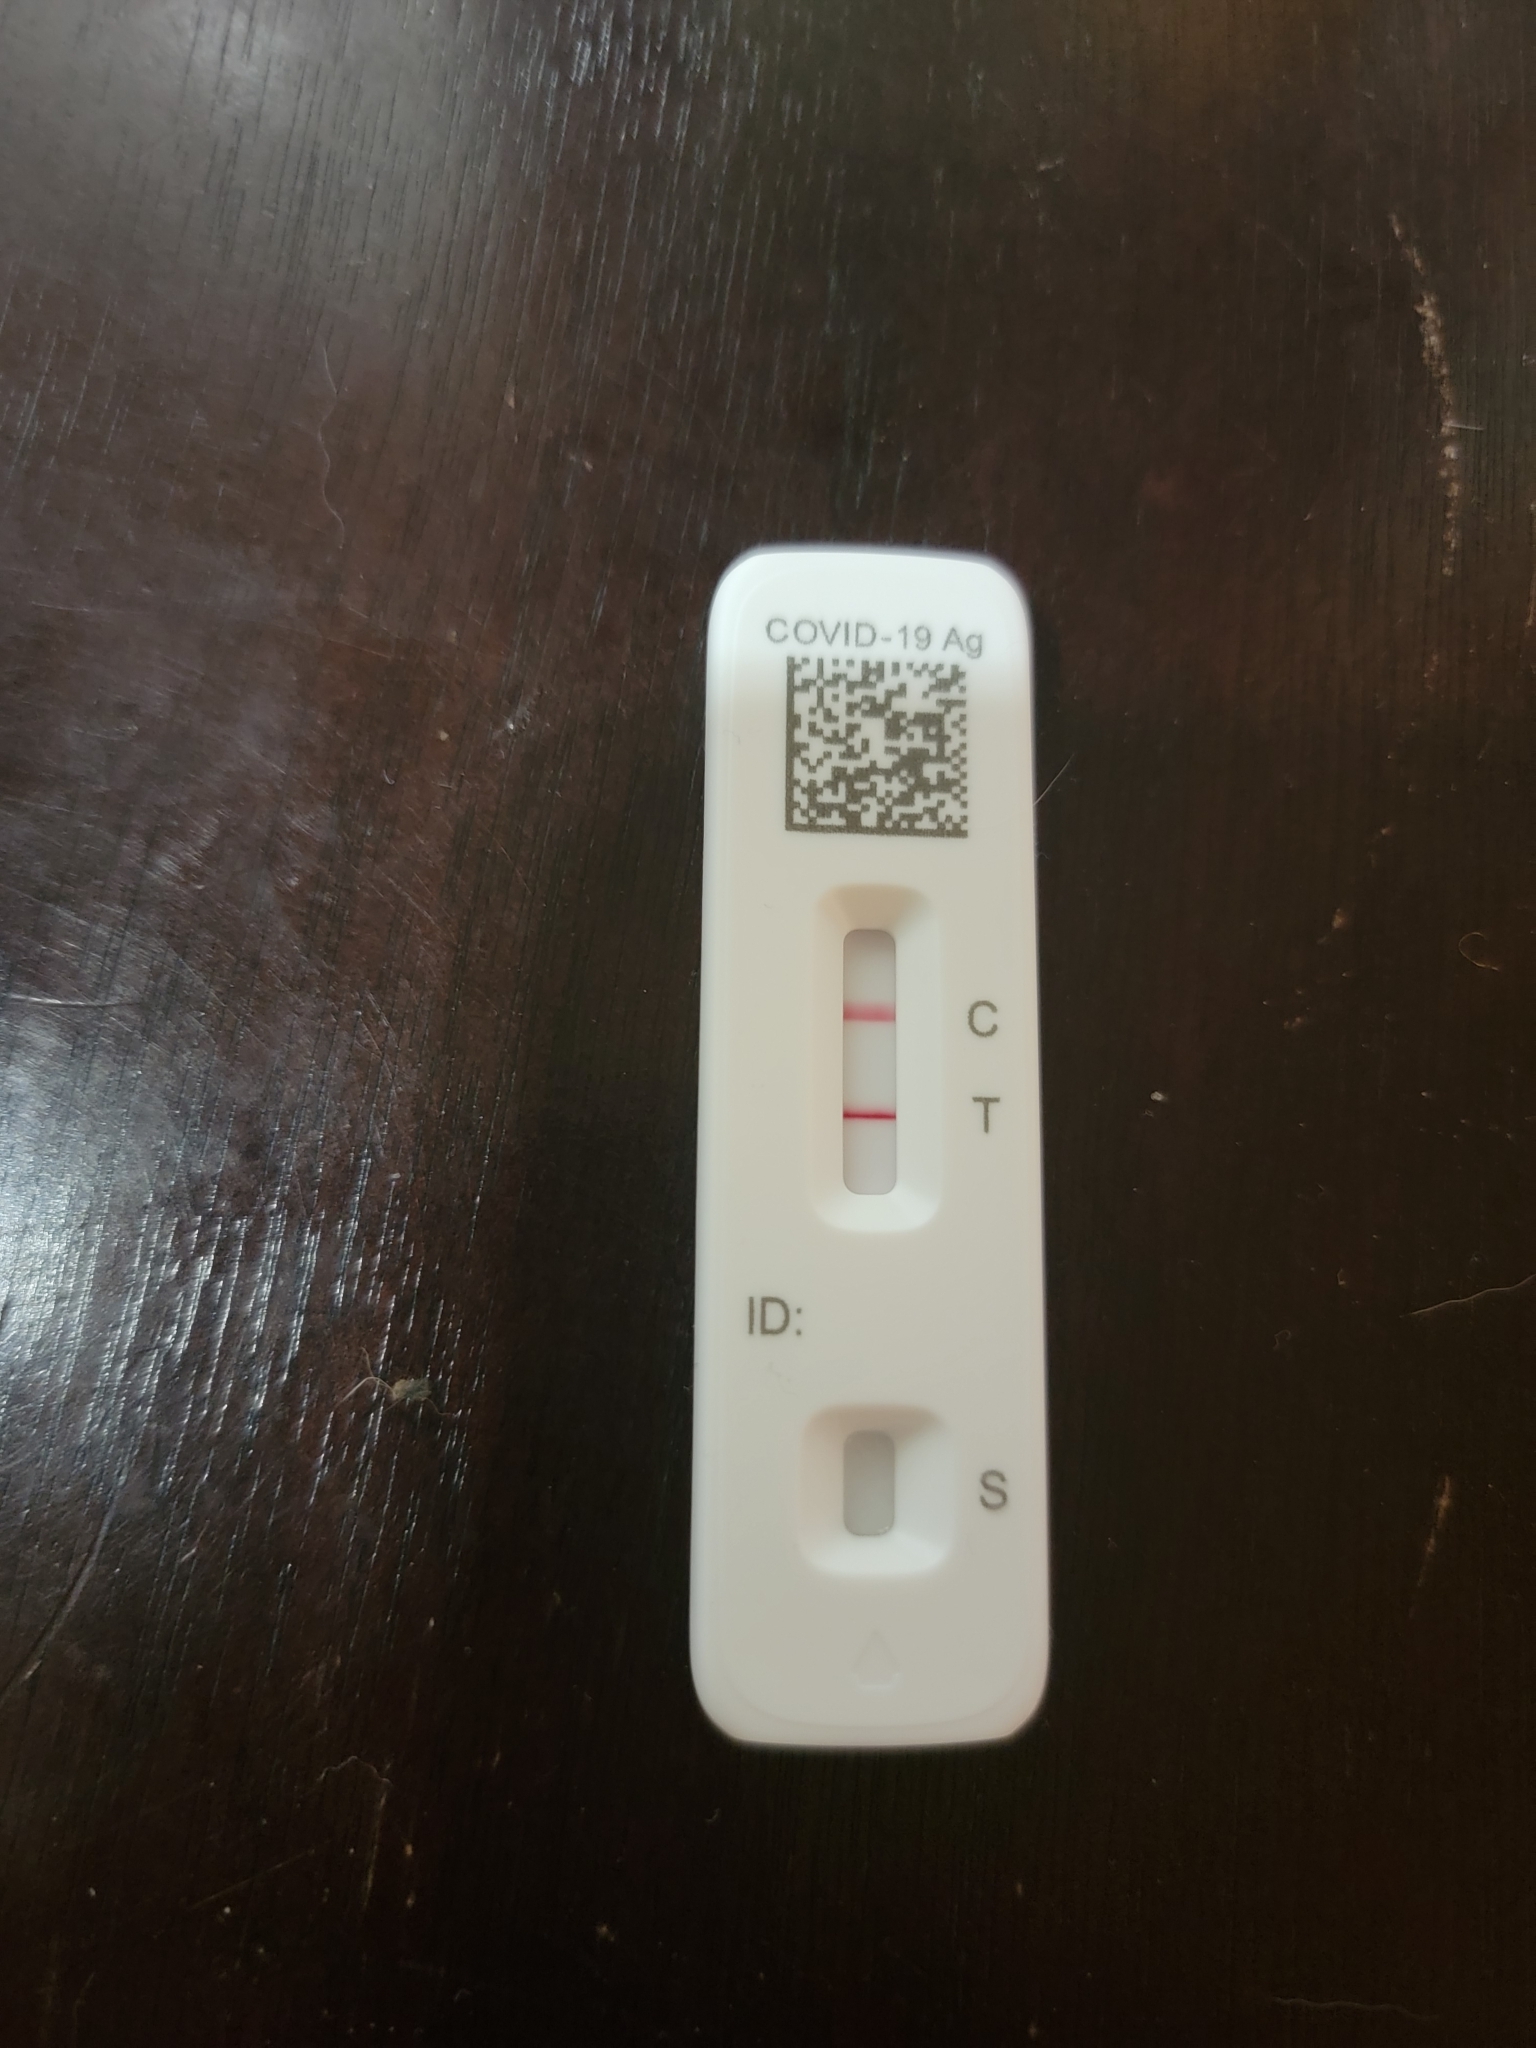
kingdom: Viruses
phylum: Pisuviricota
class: Pisoniviricetes
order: Nidovirales
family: Coronaviridae
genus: Betacoronavirus
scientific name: Betacoronavirus
